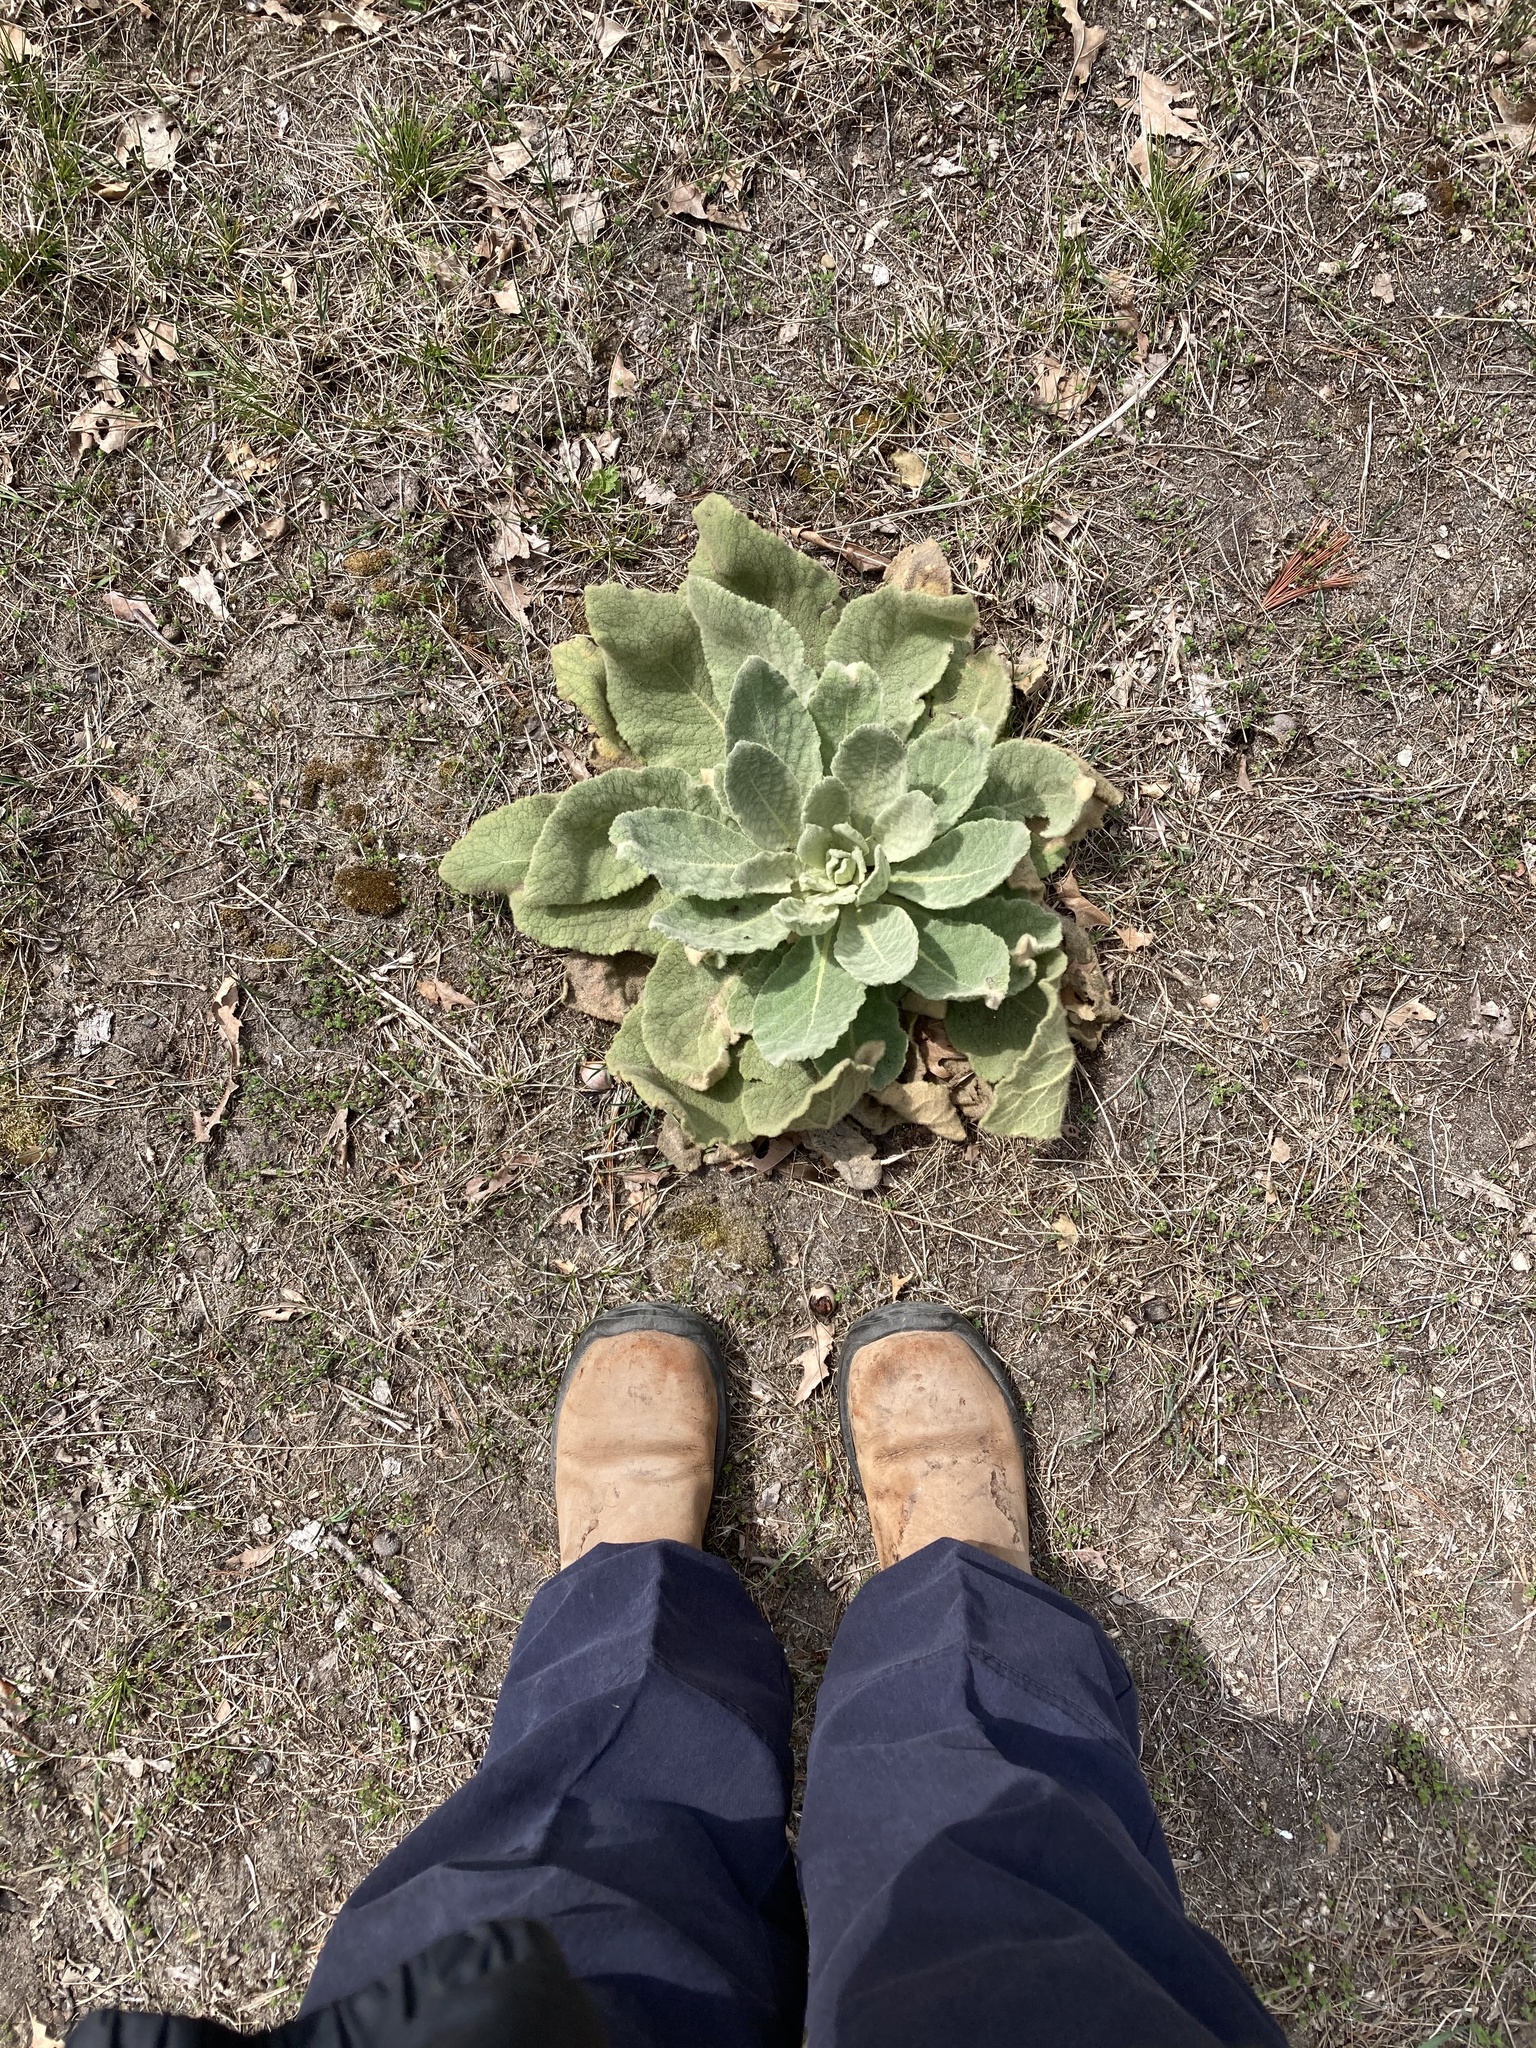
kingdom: Plantae
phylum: Tracheophyta
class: Magnoliopsida
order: Lamiales
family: Scrophulariaceae
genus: Verbascum
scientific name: Verbascum thapsus
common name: Common mullein
